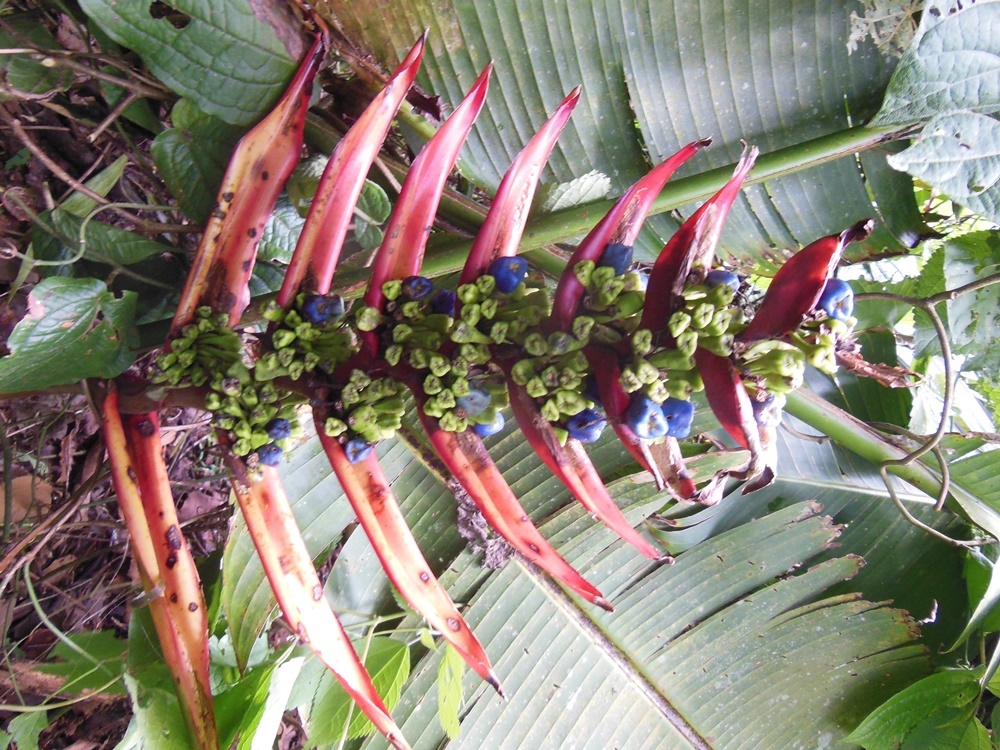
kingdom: Plantae
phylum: Tracheophyta
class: Liliopsida
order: Zingiberales
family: Heliconiaceae
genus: Heliconia
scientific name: Heliconia adflexa
